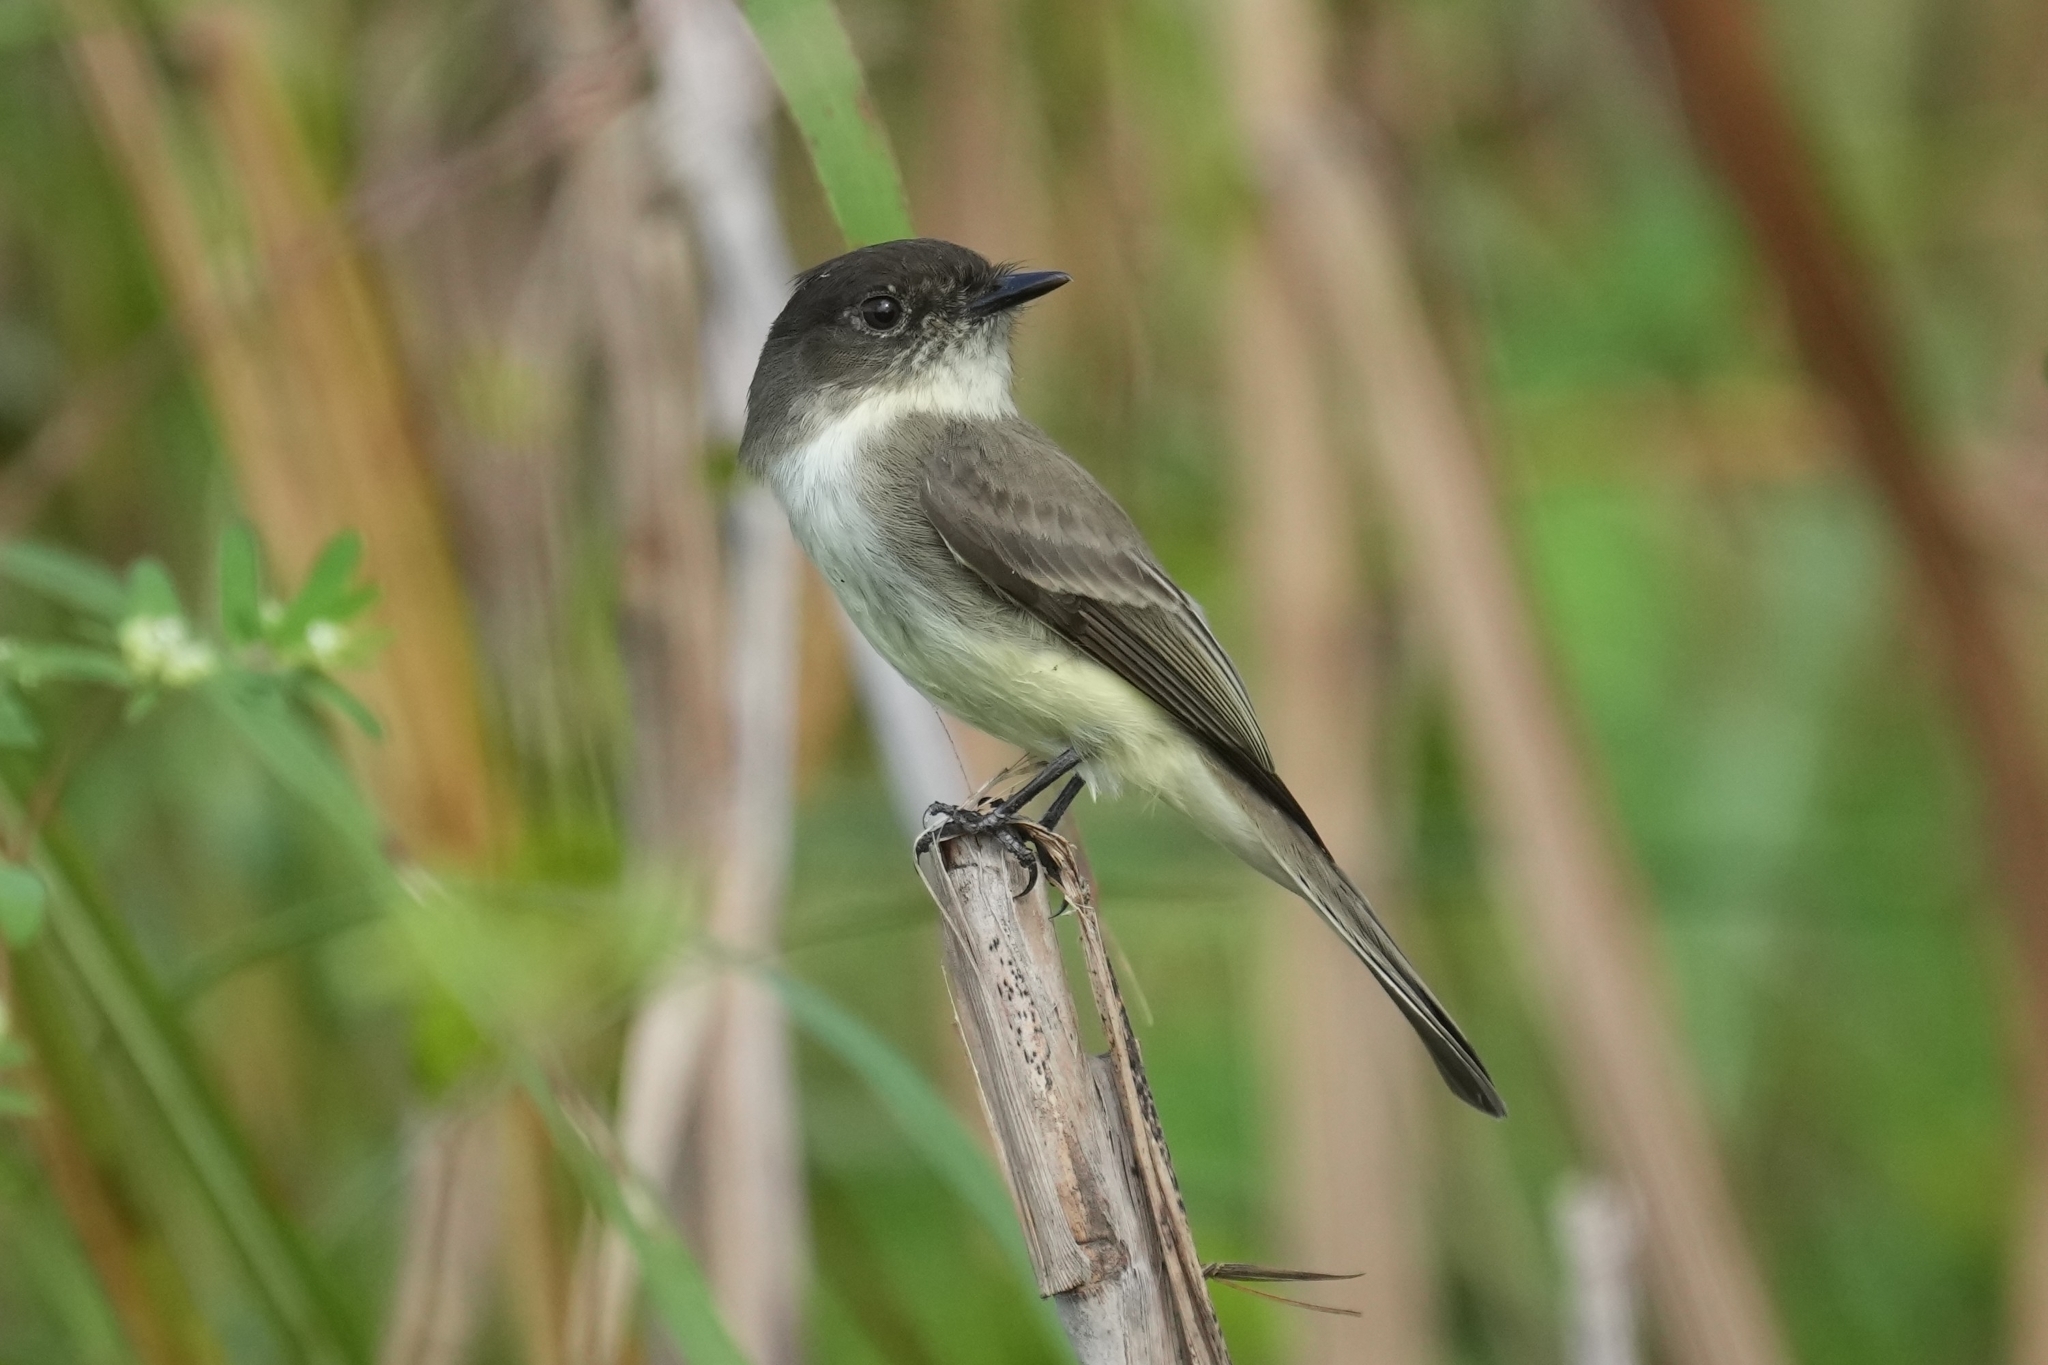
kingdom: Animalia
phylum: Chordata
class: Aves
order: Passeriformes
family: Tyrannidae
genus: Sayornis
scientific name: Sayornis phoebe
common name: Eastern phoebe
